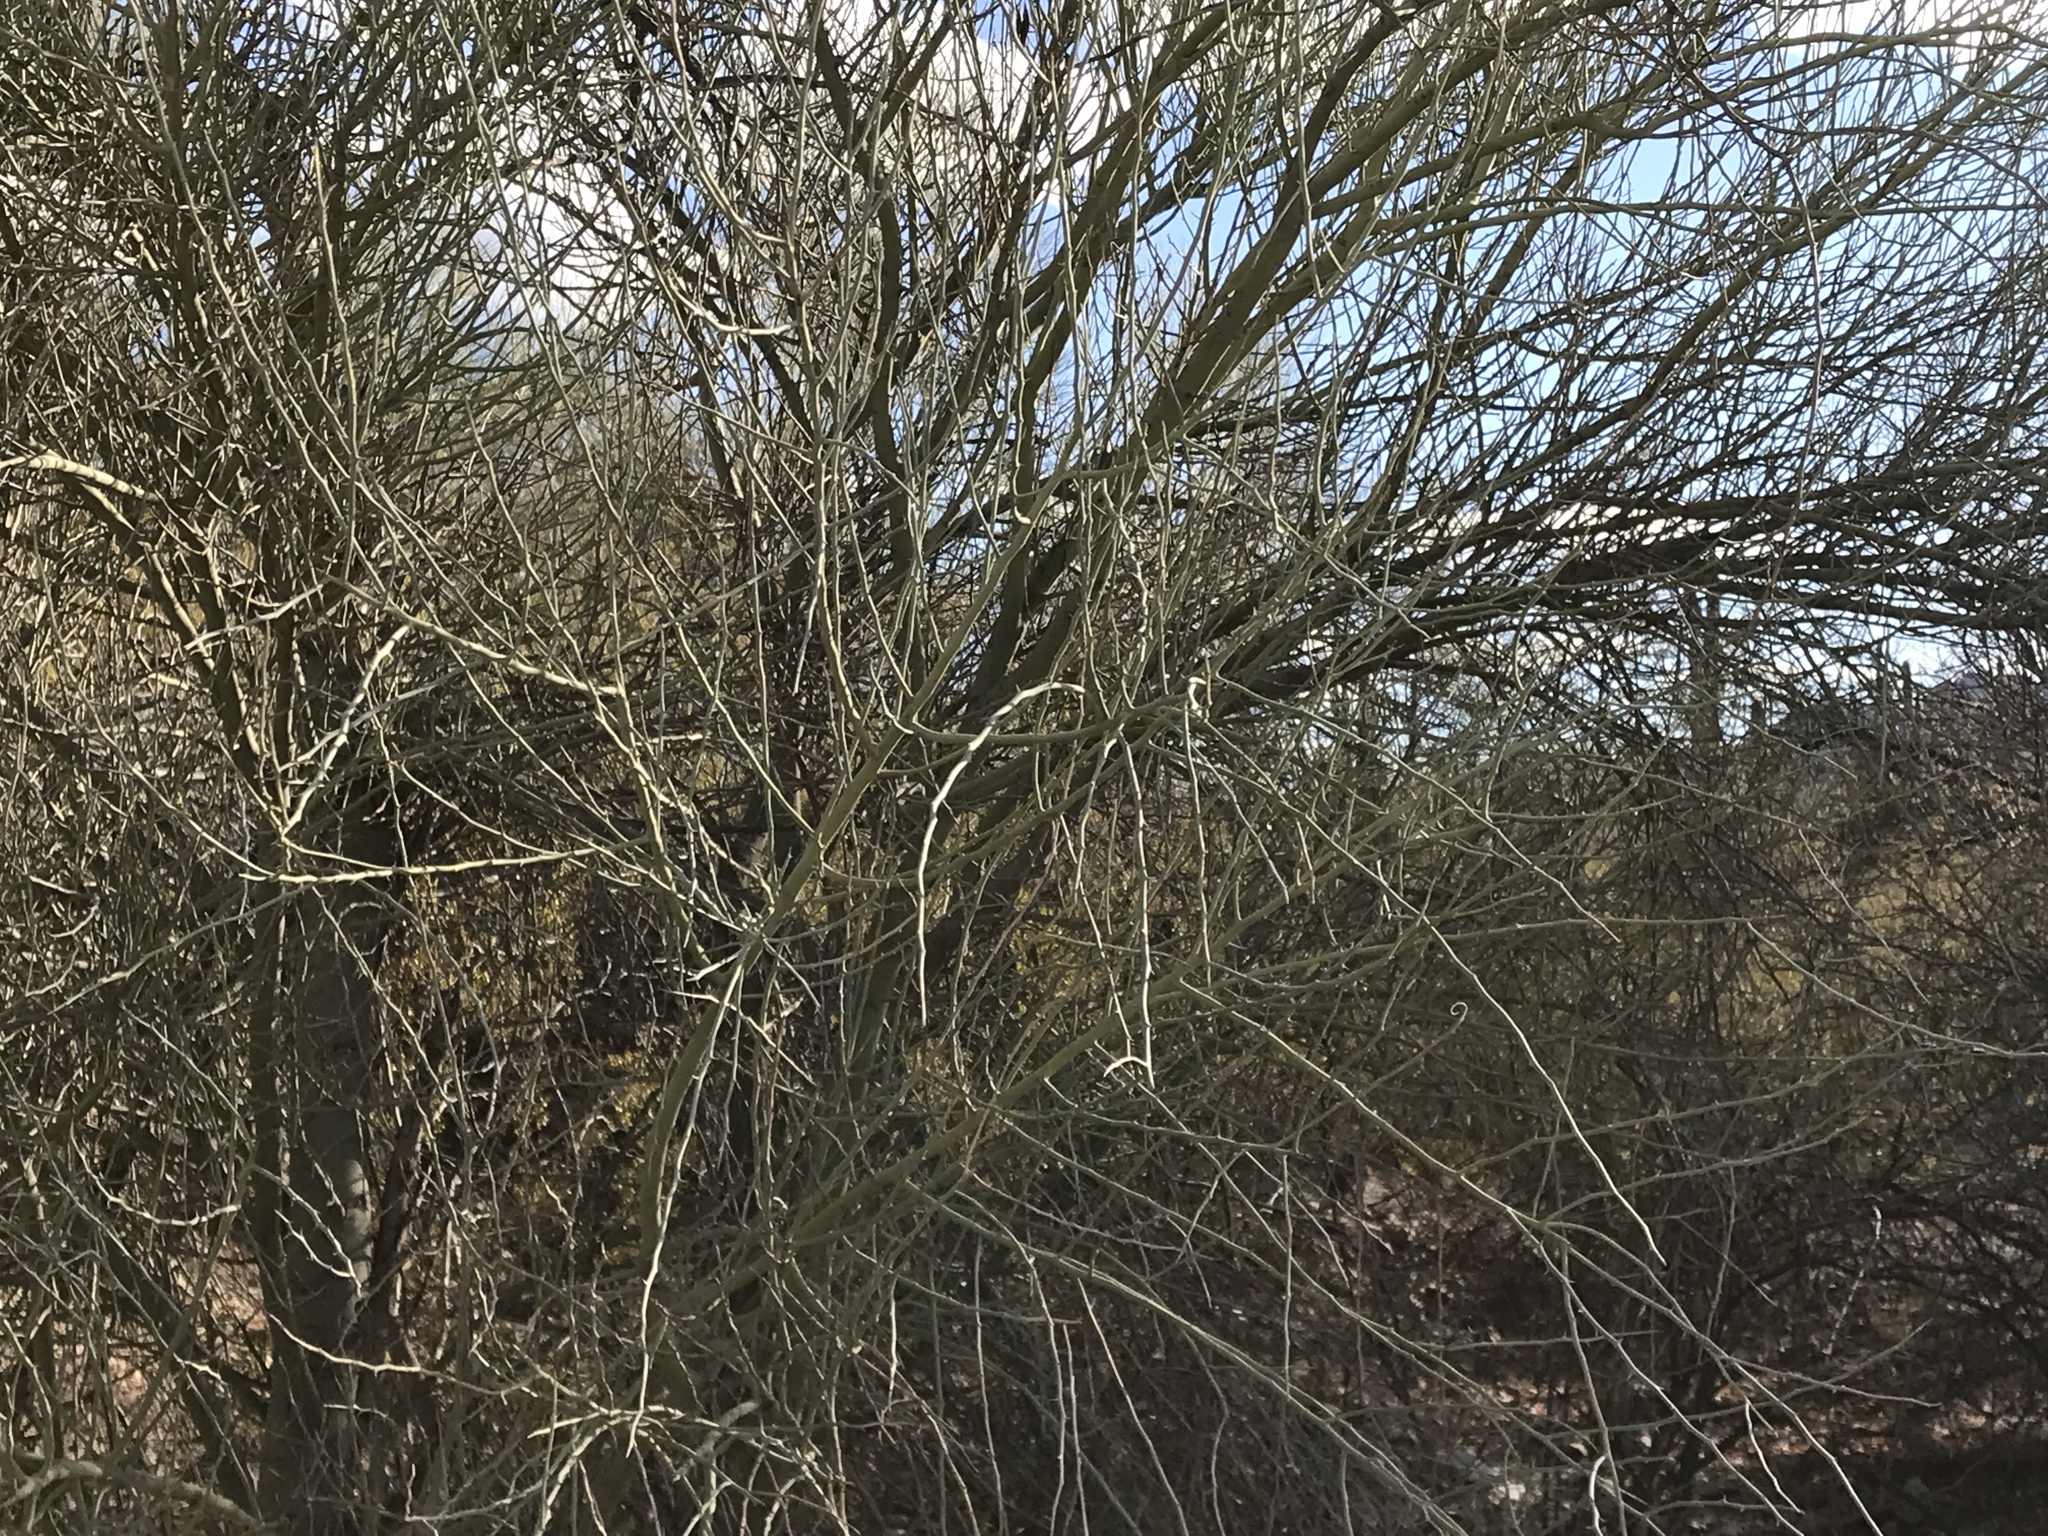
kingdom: Plantae
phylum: Tracheophyta
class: Magnoliopsida
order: Fabales
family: Fabaceae
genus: Parkinsonia
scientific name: Parkinsonia florida
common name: Blue paloverde
